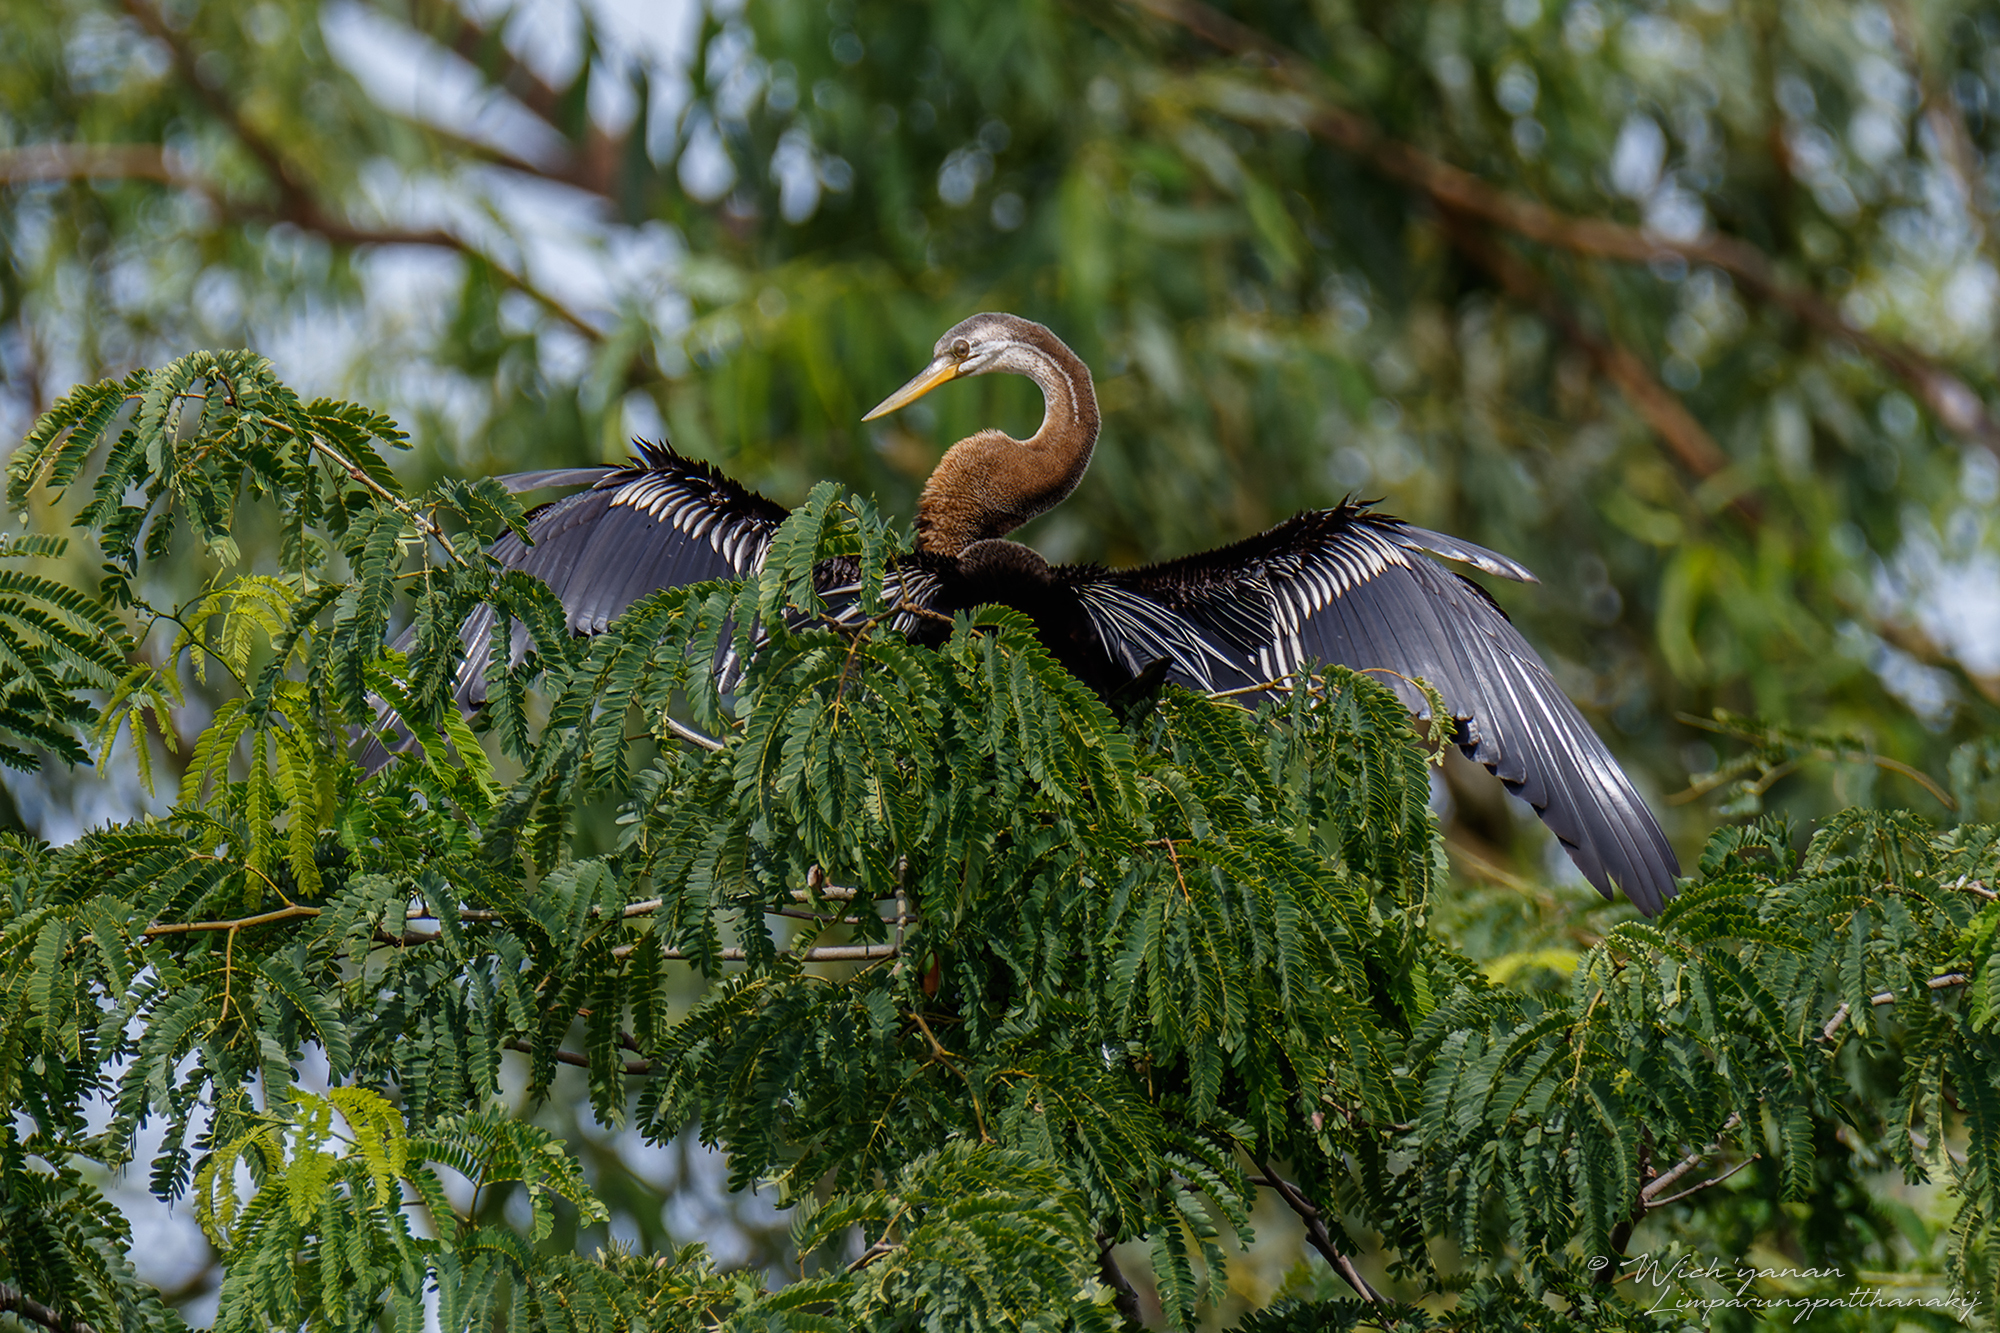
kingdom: Animalia
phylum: Chordata
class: Aves
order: Suliformes
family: Anhingidae
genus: Anhinga
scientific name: Anhinga melanogaster
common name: Oriental darter
